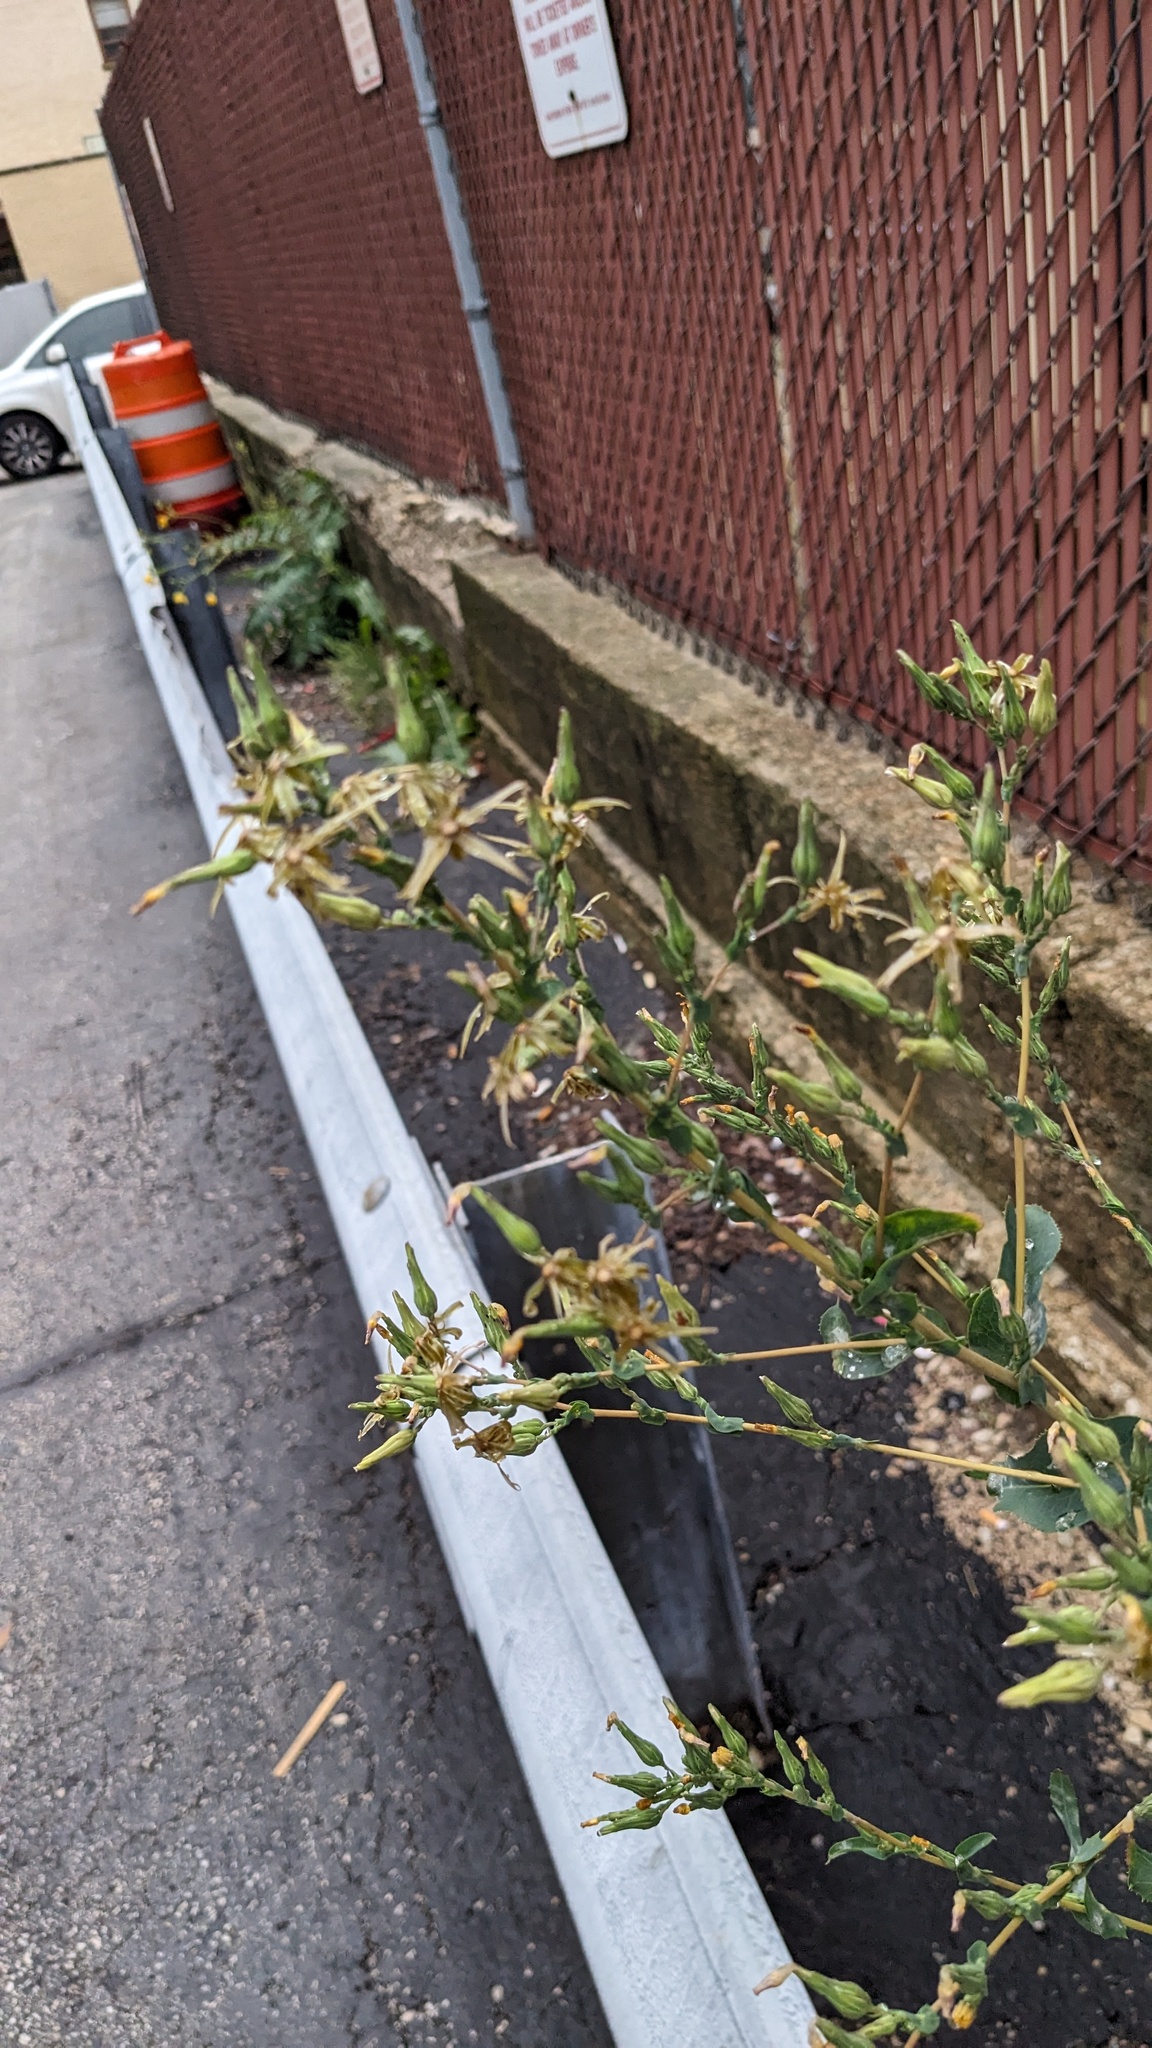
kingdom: Plantae
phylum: Tracheophyta
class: Magnoliopsida
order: Asterales
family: Asteraceae
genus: Lactuca
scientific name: Lactuca serriola
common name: Prickly lettuce
